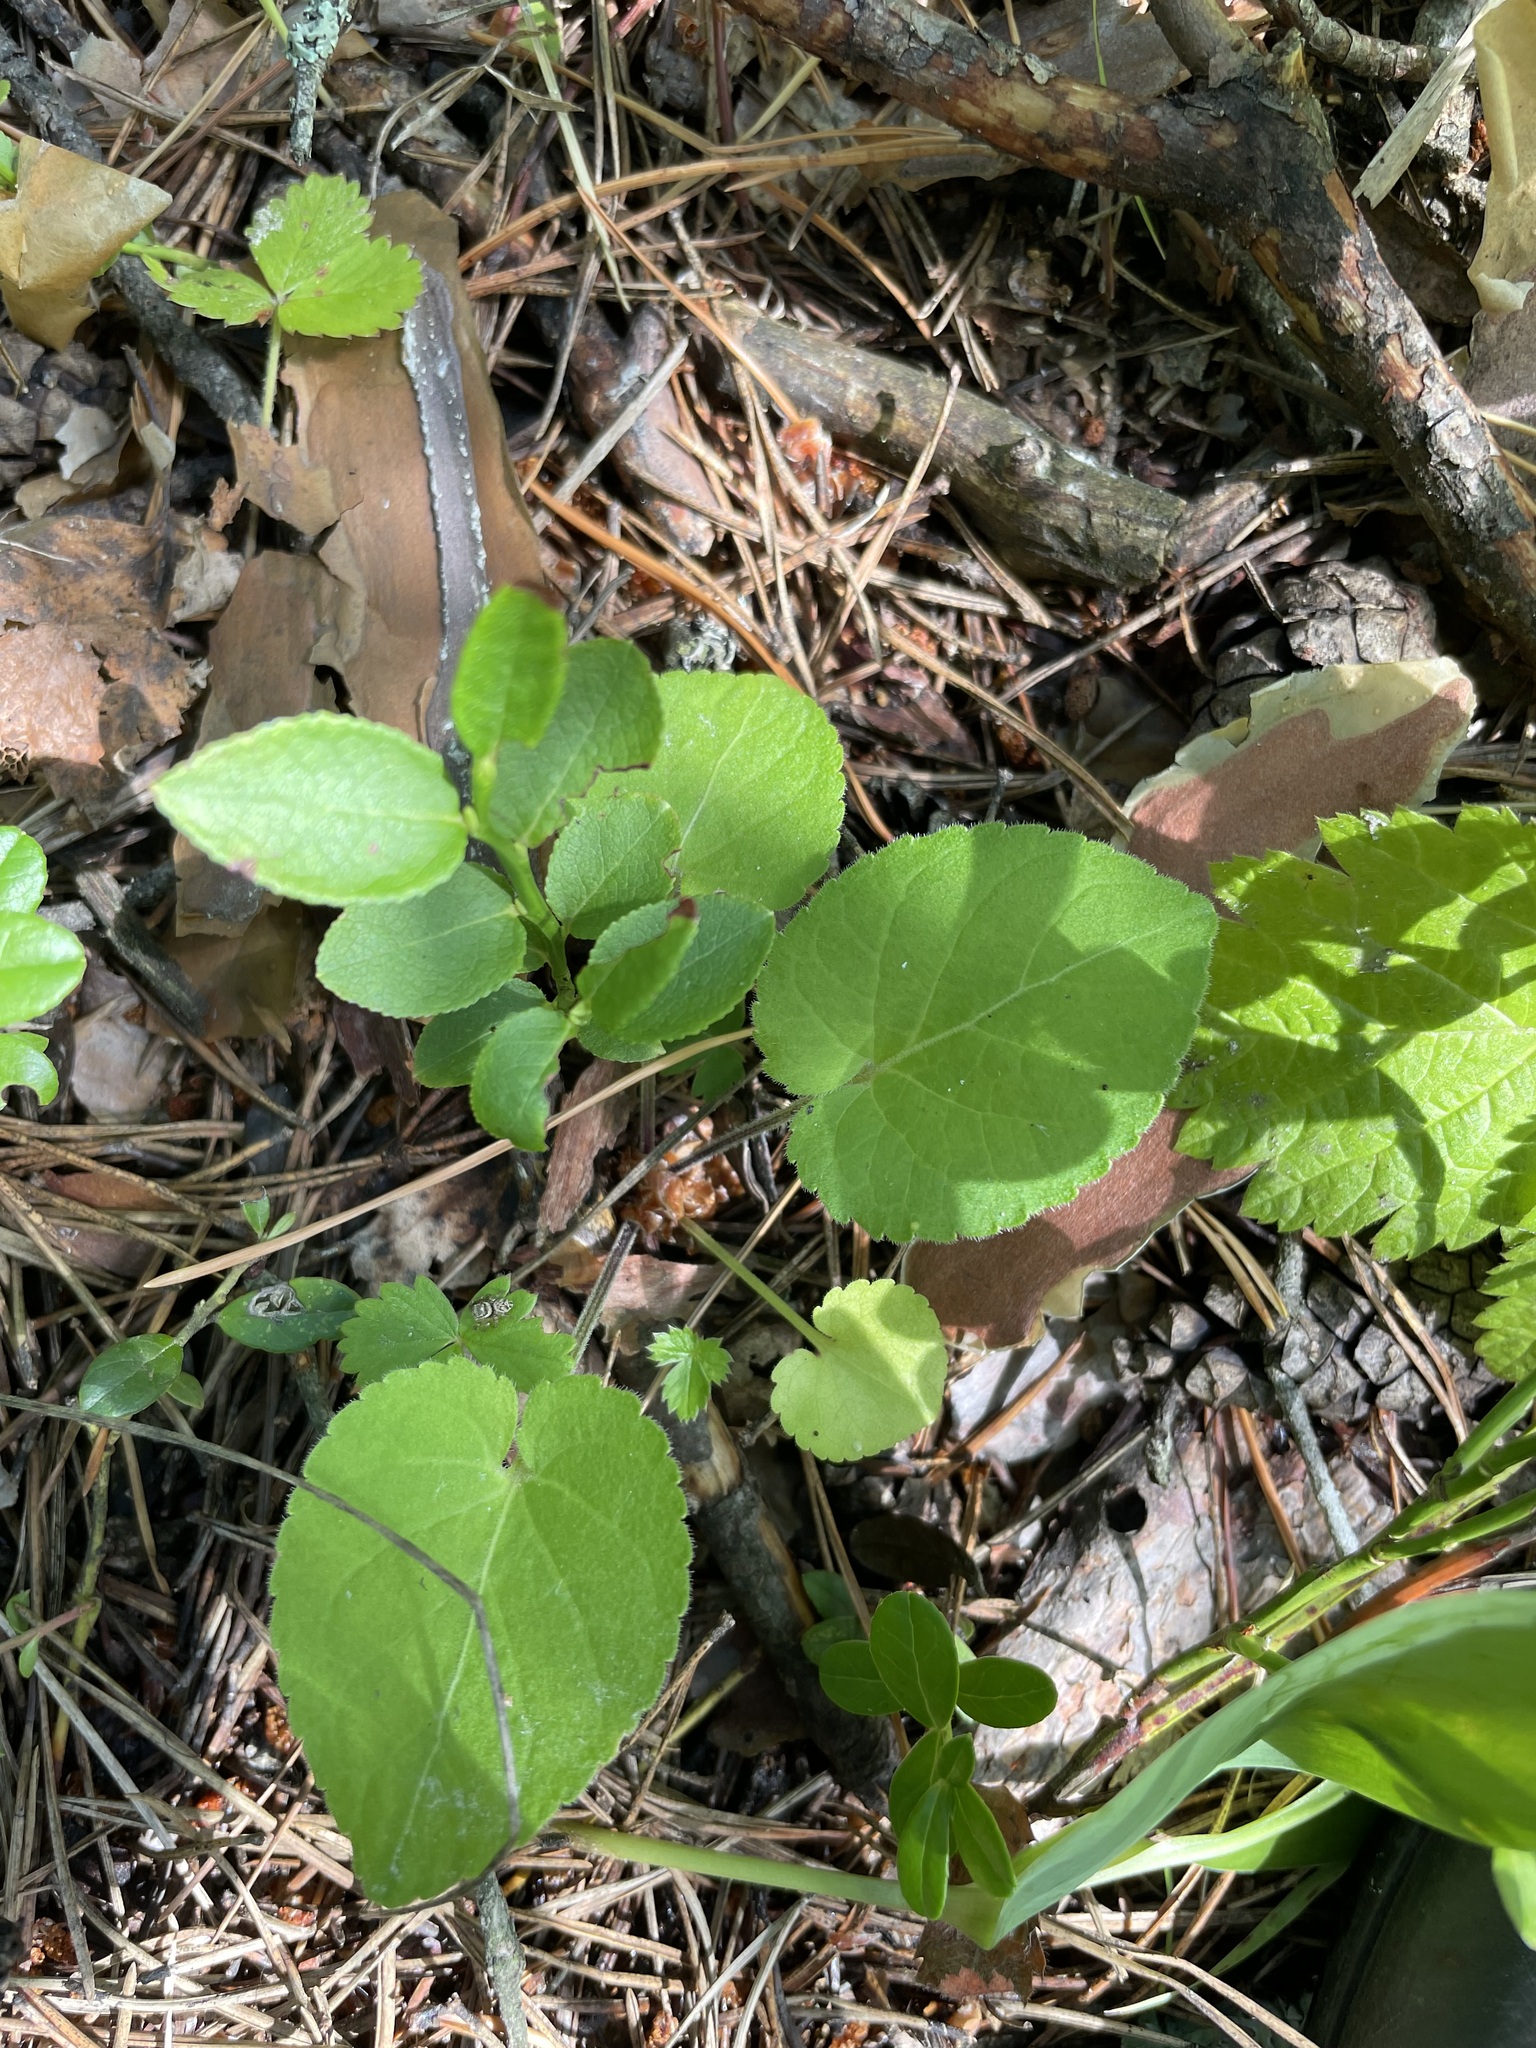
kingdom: Plantae
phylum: Tracheophyta
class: Magnoliopsida
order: Malpighiales
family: Violaceae
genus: Viola
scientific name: Viola collina
